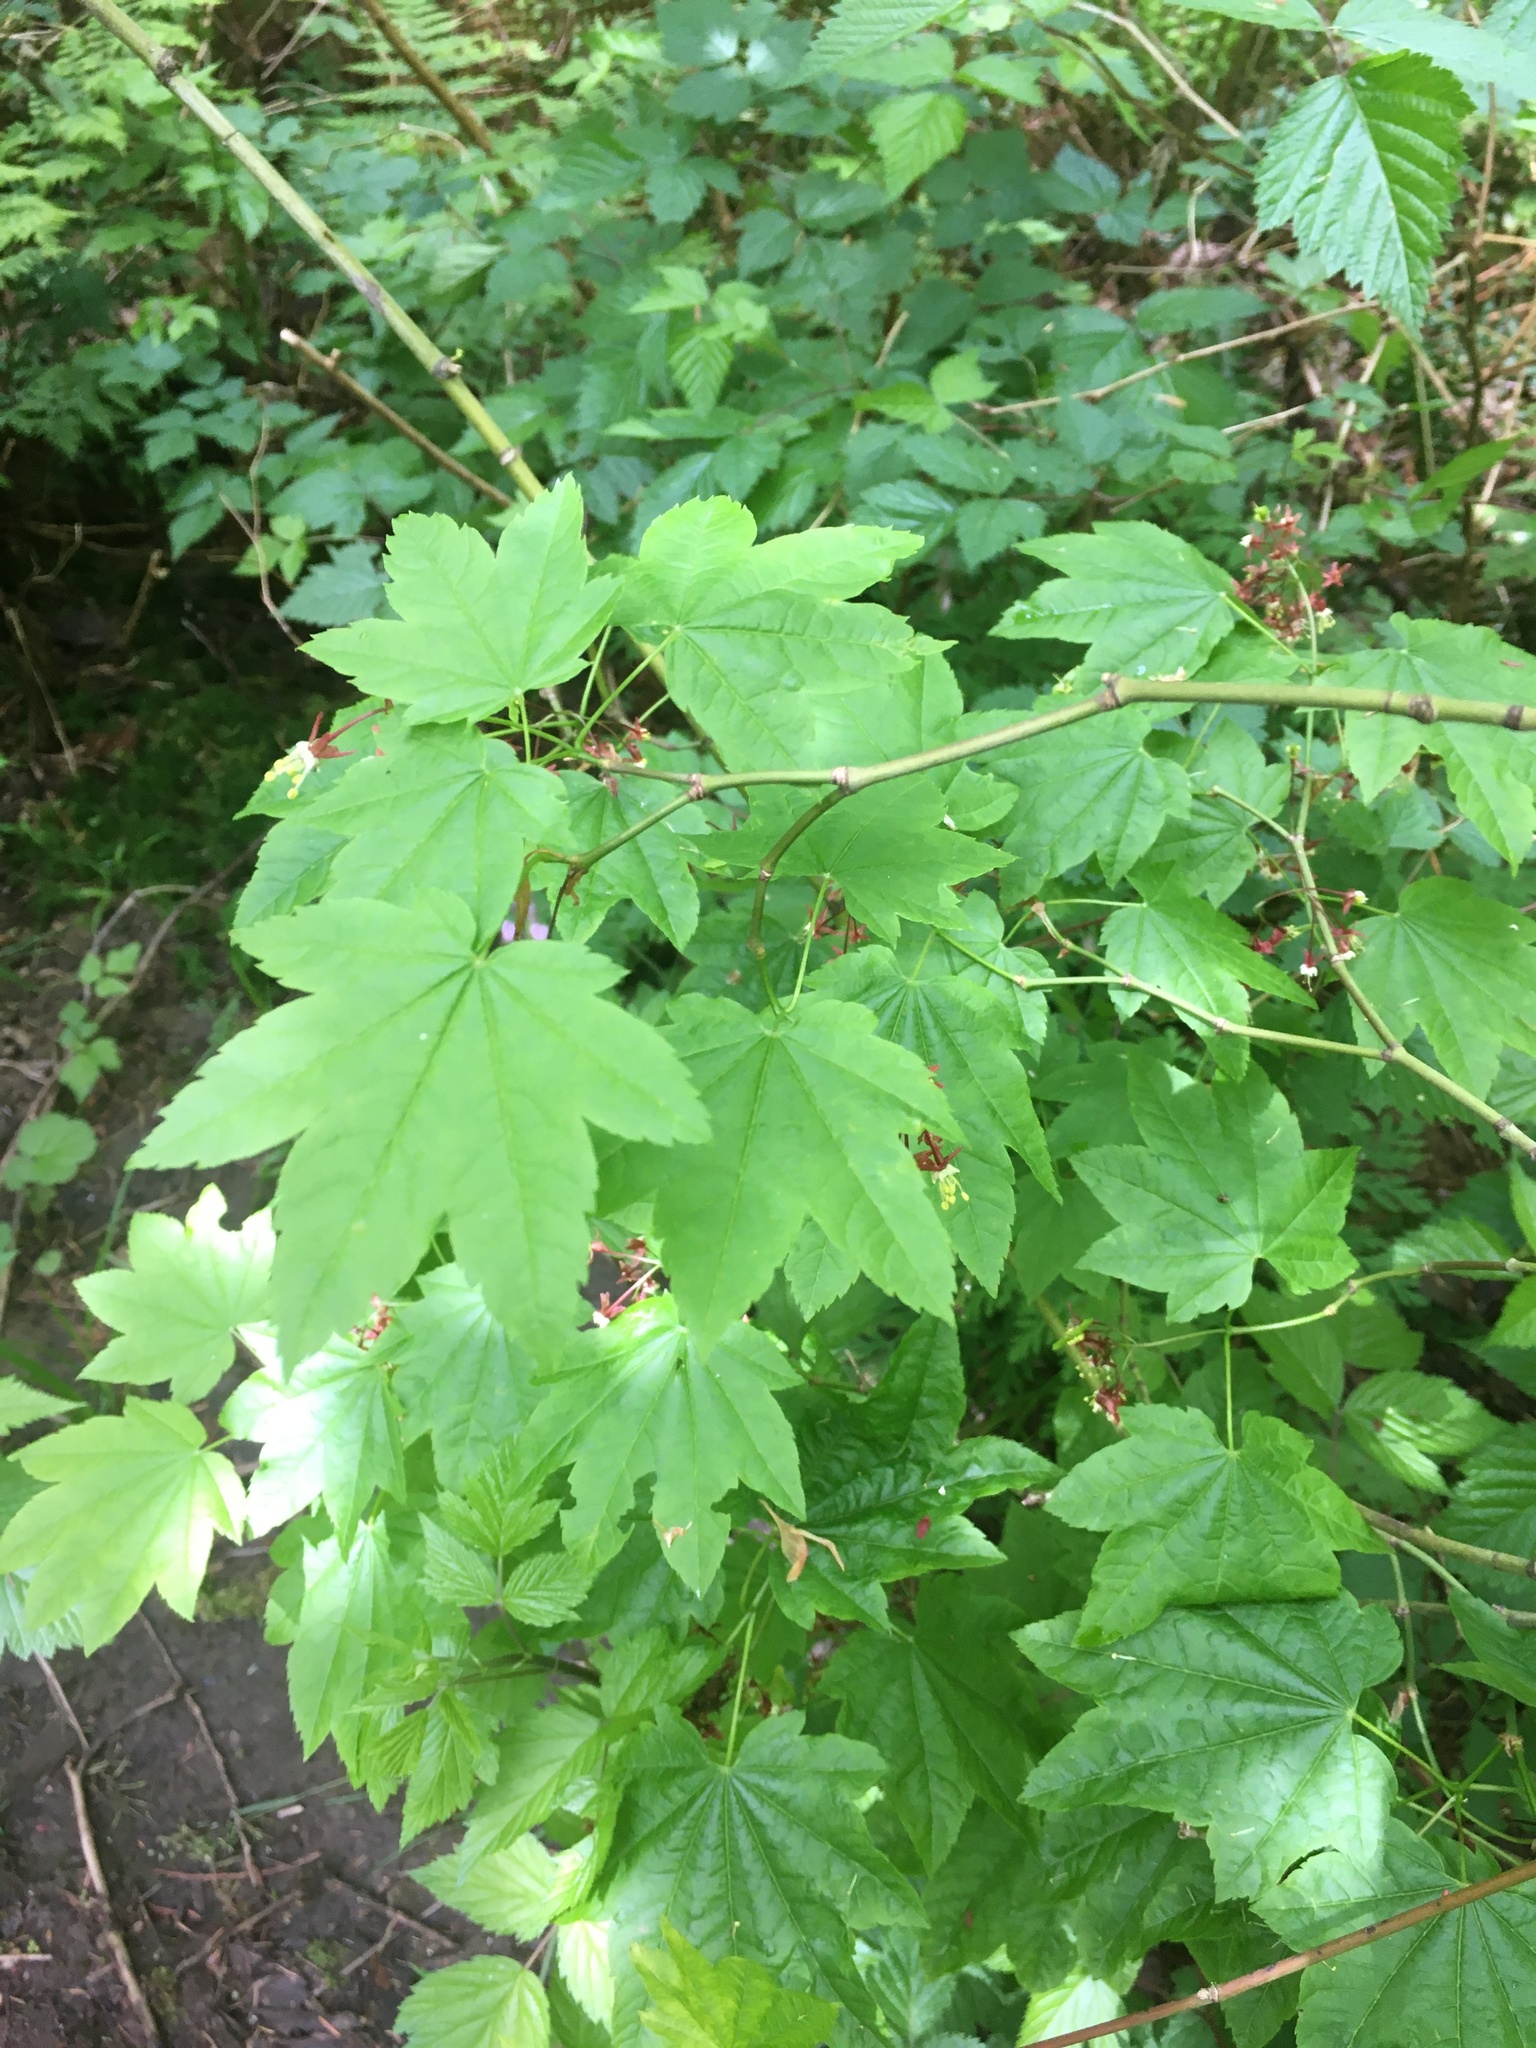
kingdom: Plantae
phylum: Tracheophyta
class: Magnoliopsida
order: Sapindales
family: Sapindaceae
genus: Acer
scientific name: Acer circinatum
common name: Vine maple
